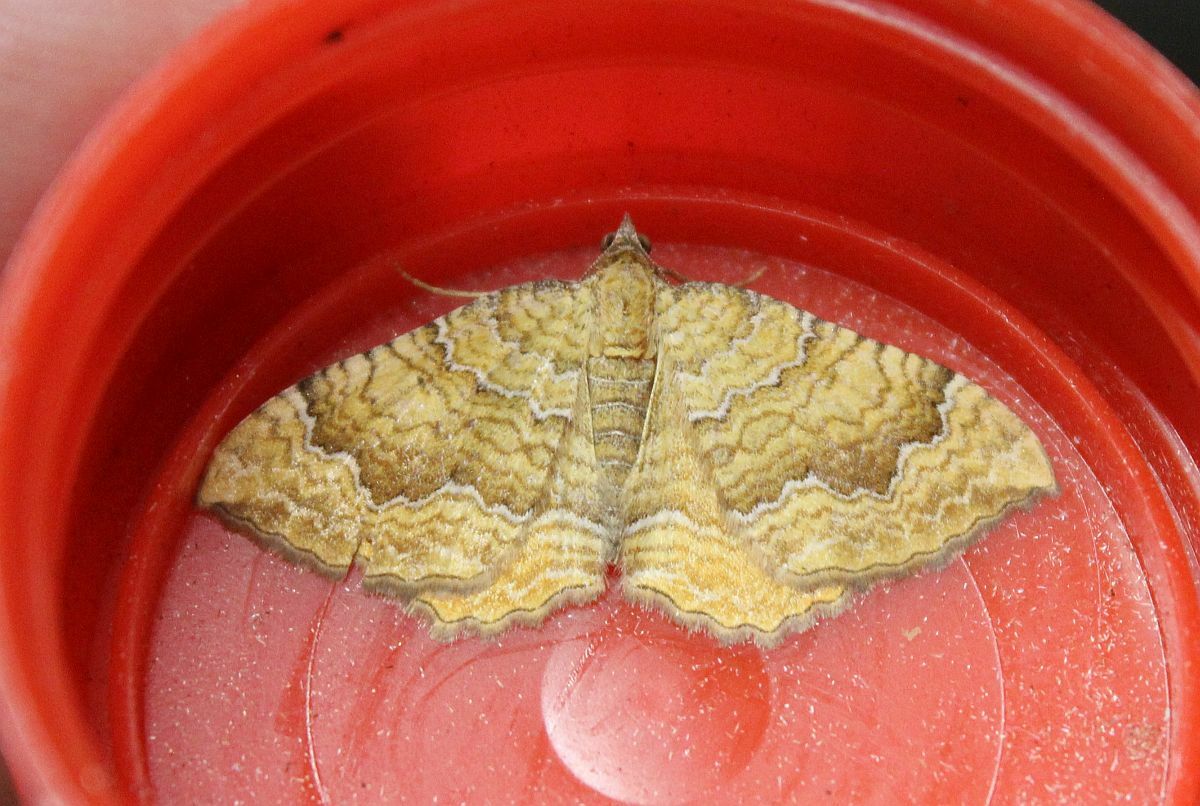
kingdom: Animalia
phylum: Arthropoda
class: Insecta
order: Lepidoptera
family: Geometridae
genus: Camptogramma
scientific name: Camptogramma bilineata
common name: Yellow shell
